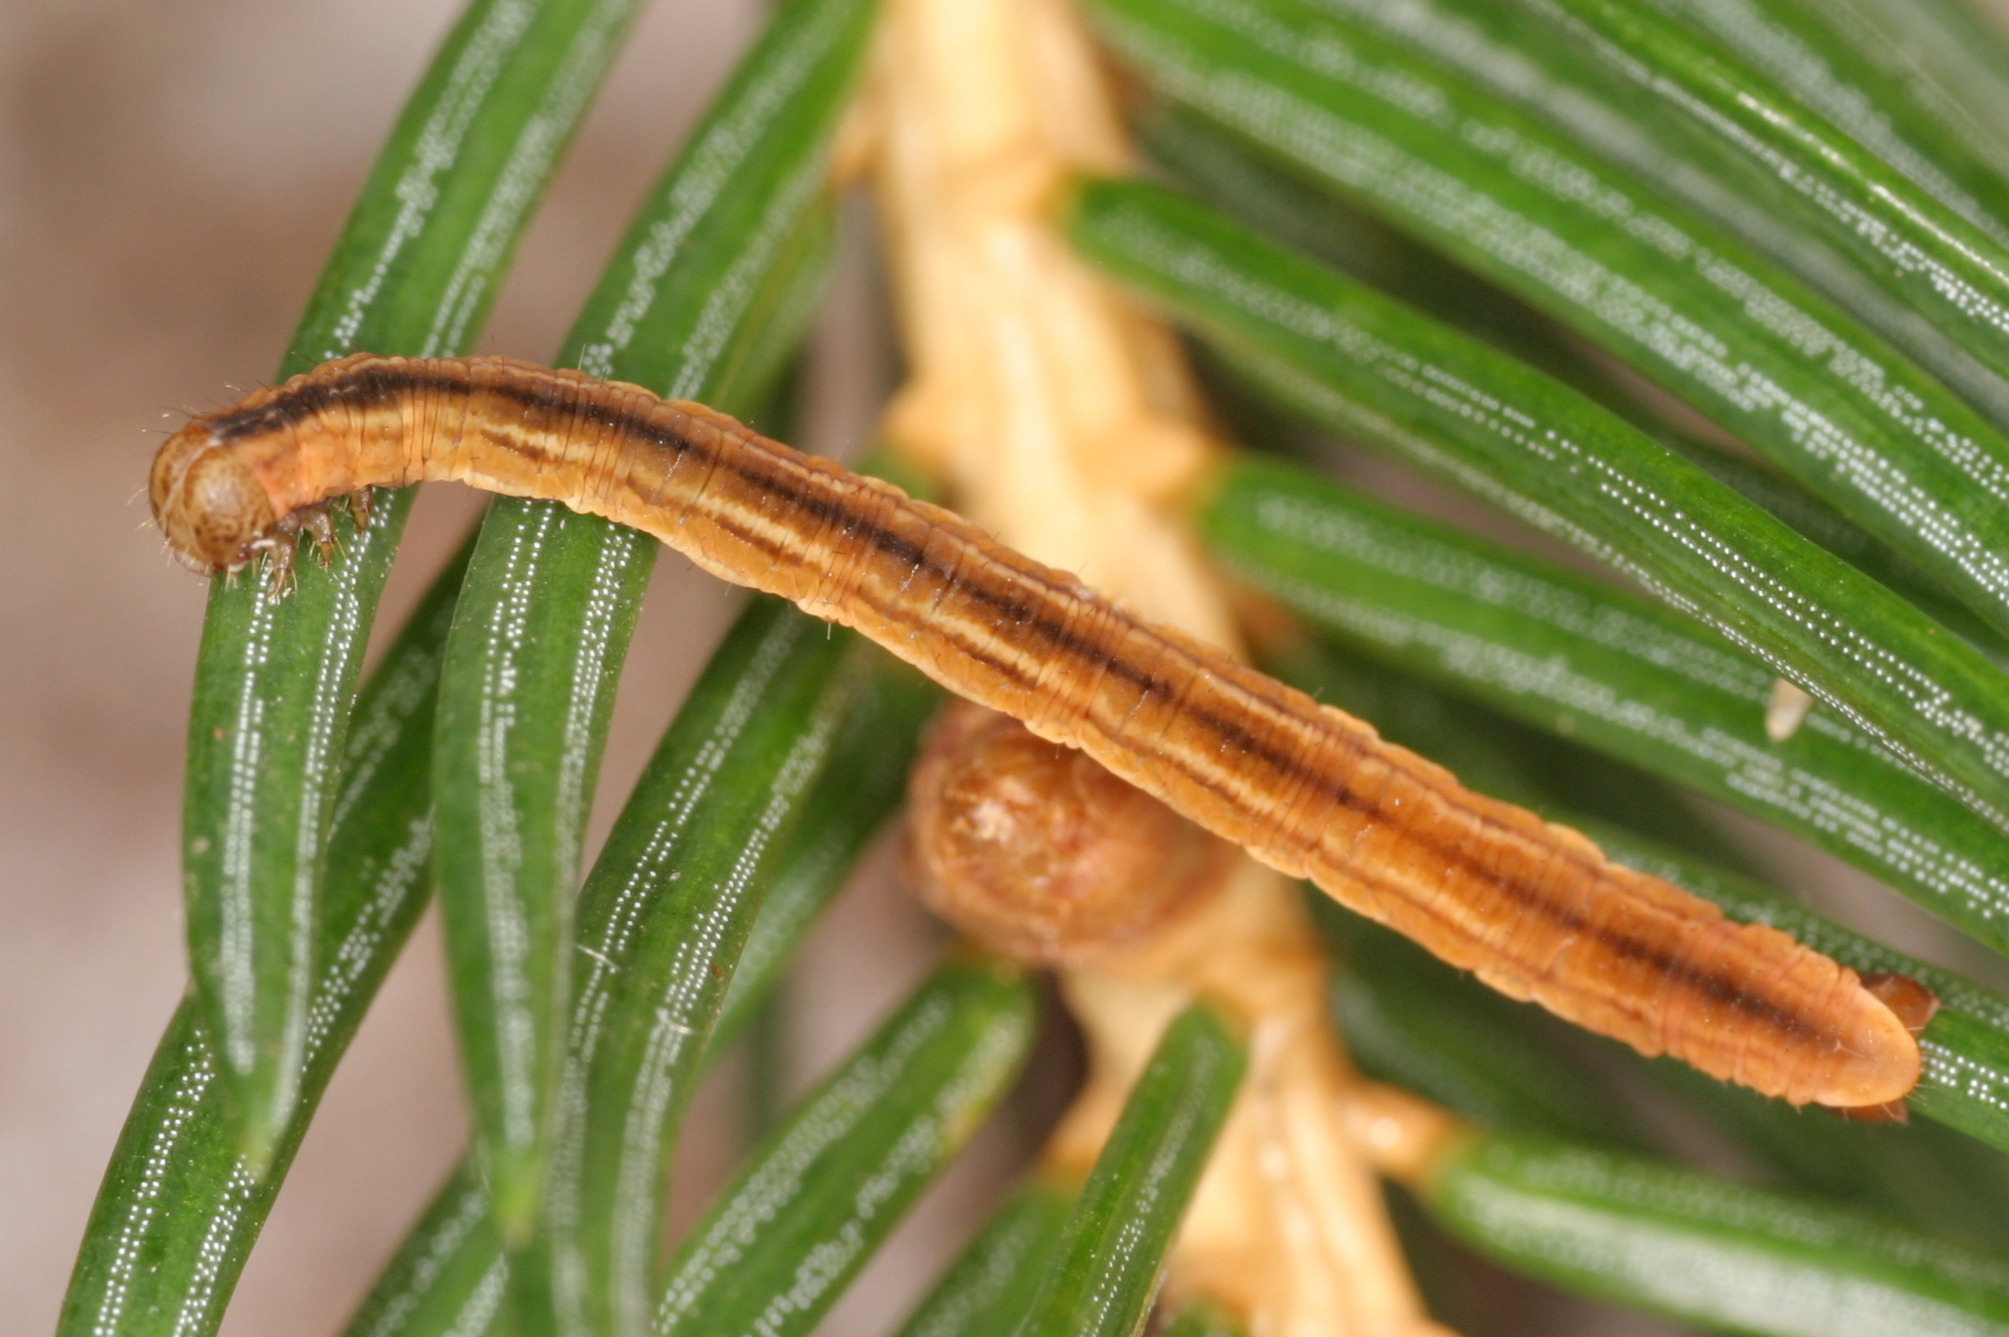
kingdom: Animalia
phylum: Arthropoda
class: Insecta
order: Lepidoptera
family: Geometridae
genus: Eupithecia
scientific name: Eupithecia tantillaria
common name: Dwarf pug
